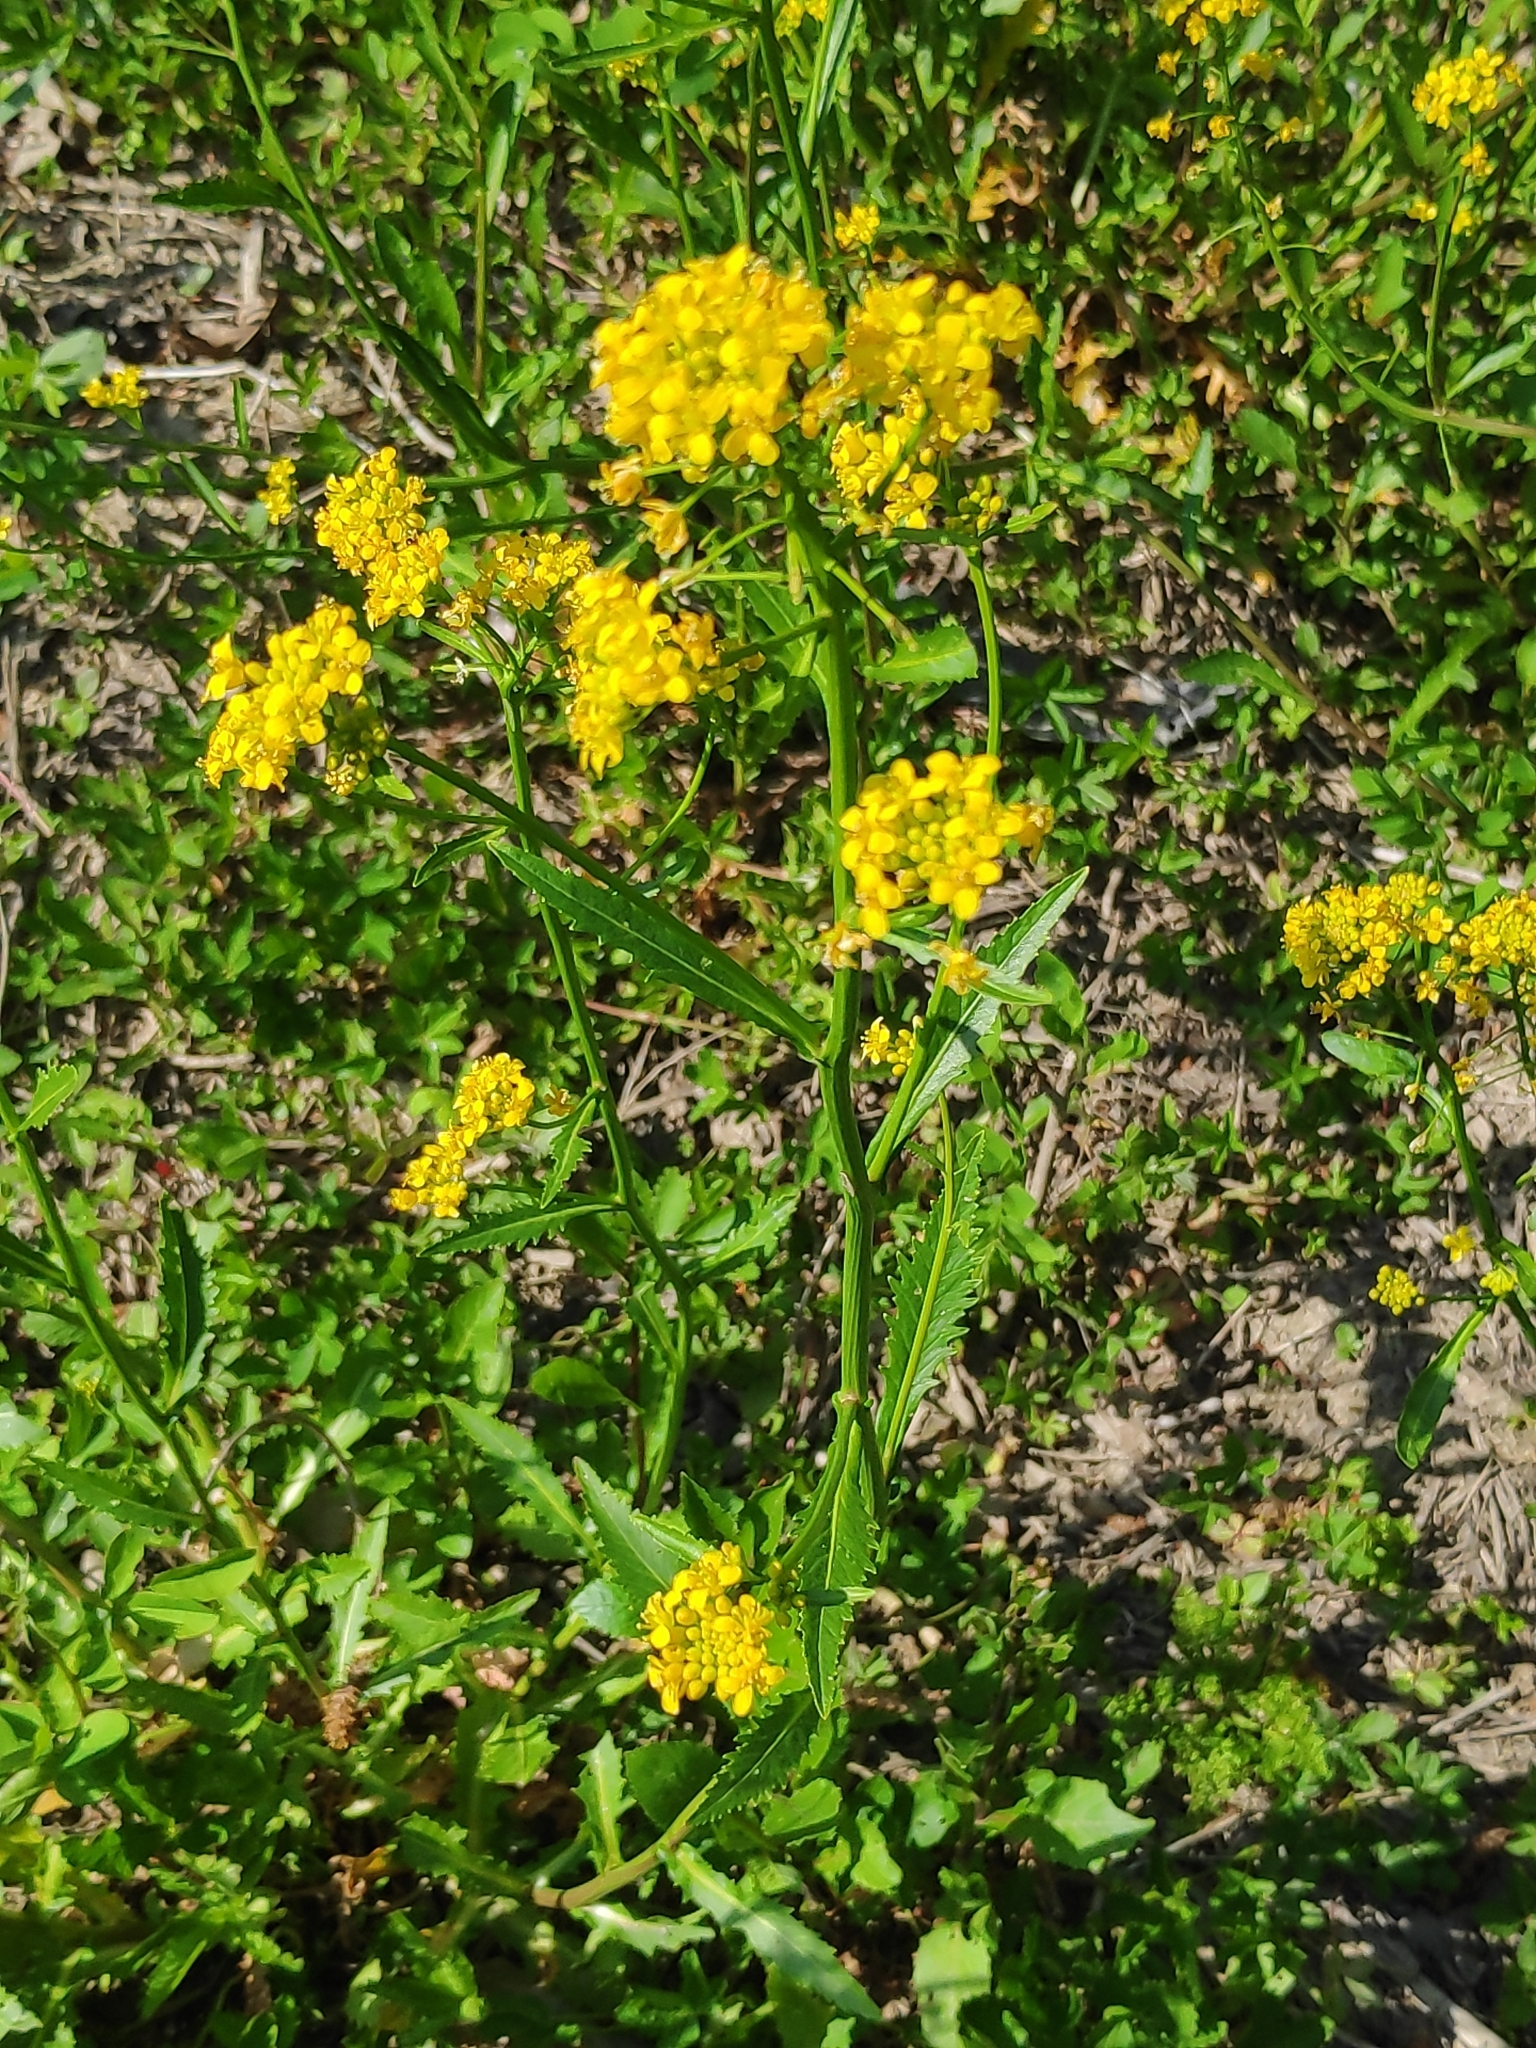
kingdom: Plantae
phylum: Tracheophyta
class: Magnoliopsida
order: Brassicales
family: Brassicaceae
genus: Rorippa
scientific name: Rorippa amphibia
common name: Great yellow-cress
